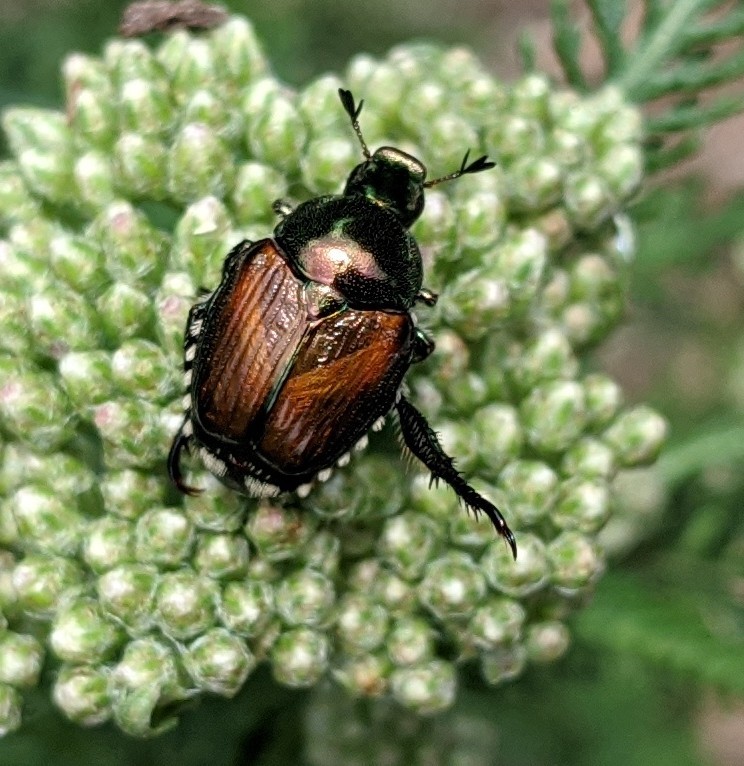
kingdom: Animalia
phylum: Arthropoda
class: Insecta
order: Coleoptera
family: Scarabaeidae
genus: Popillia
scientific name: Popillia japonica
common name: Japanese beetle
